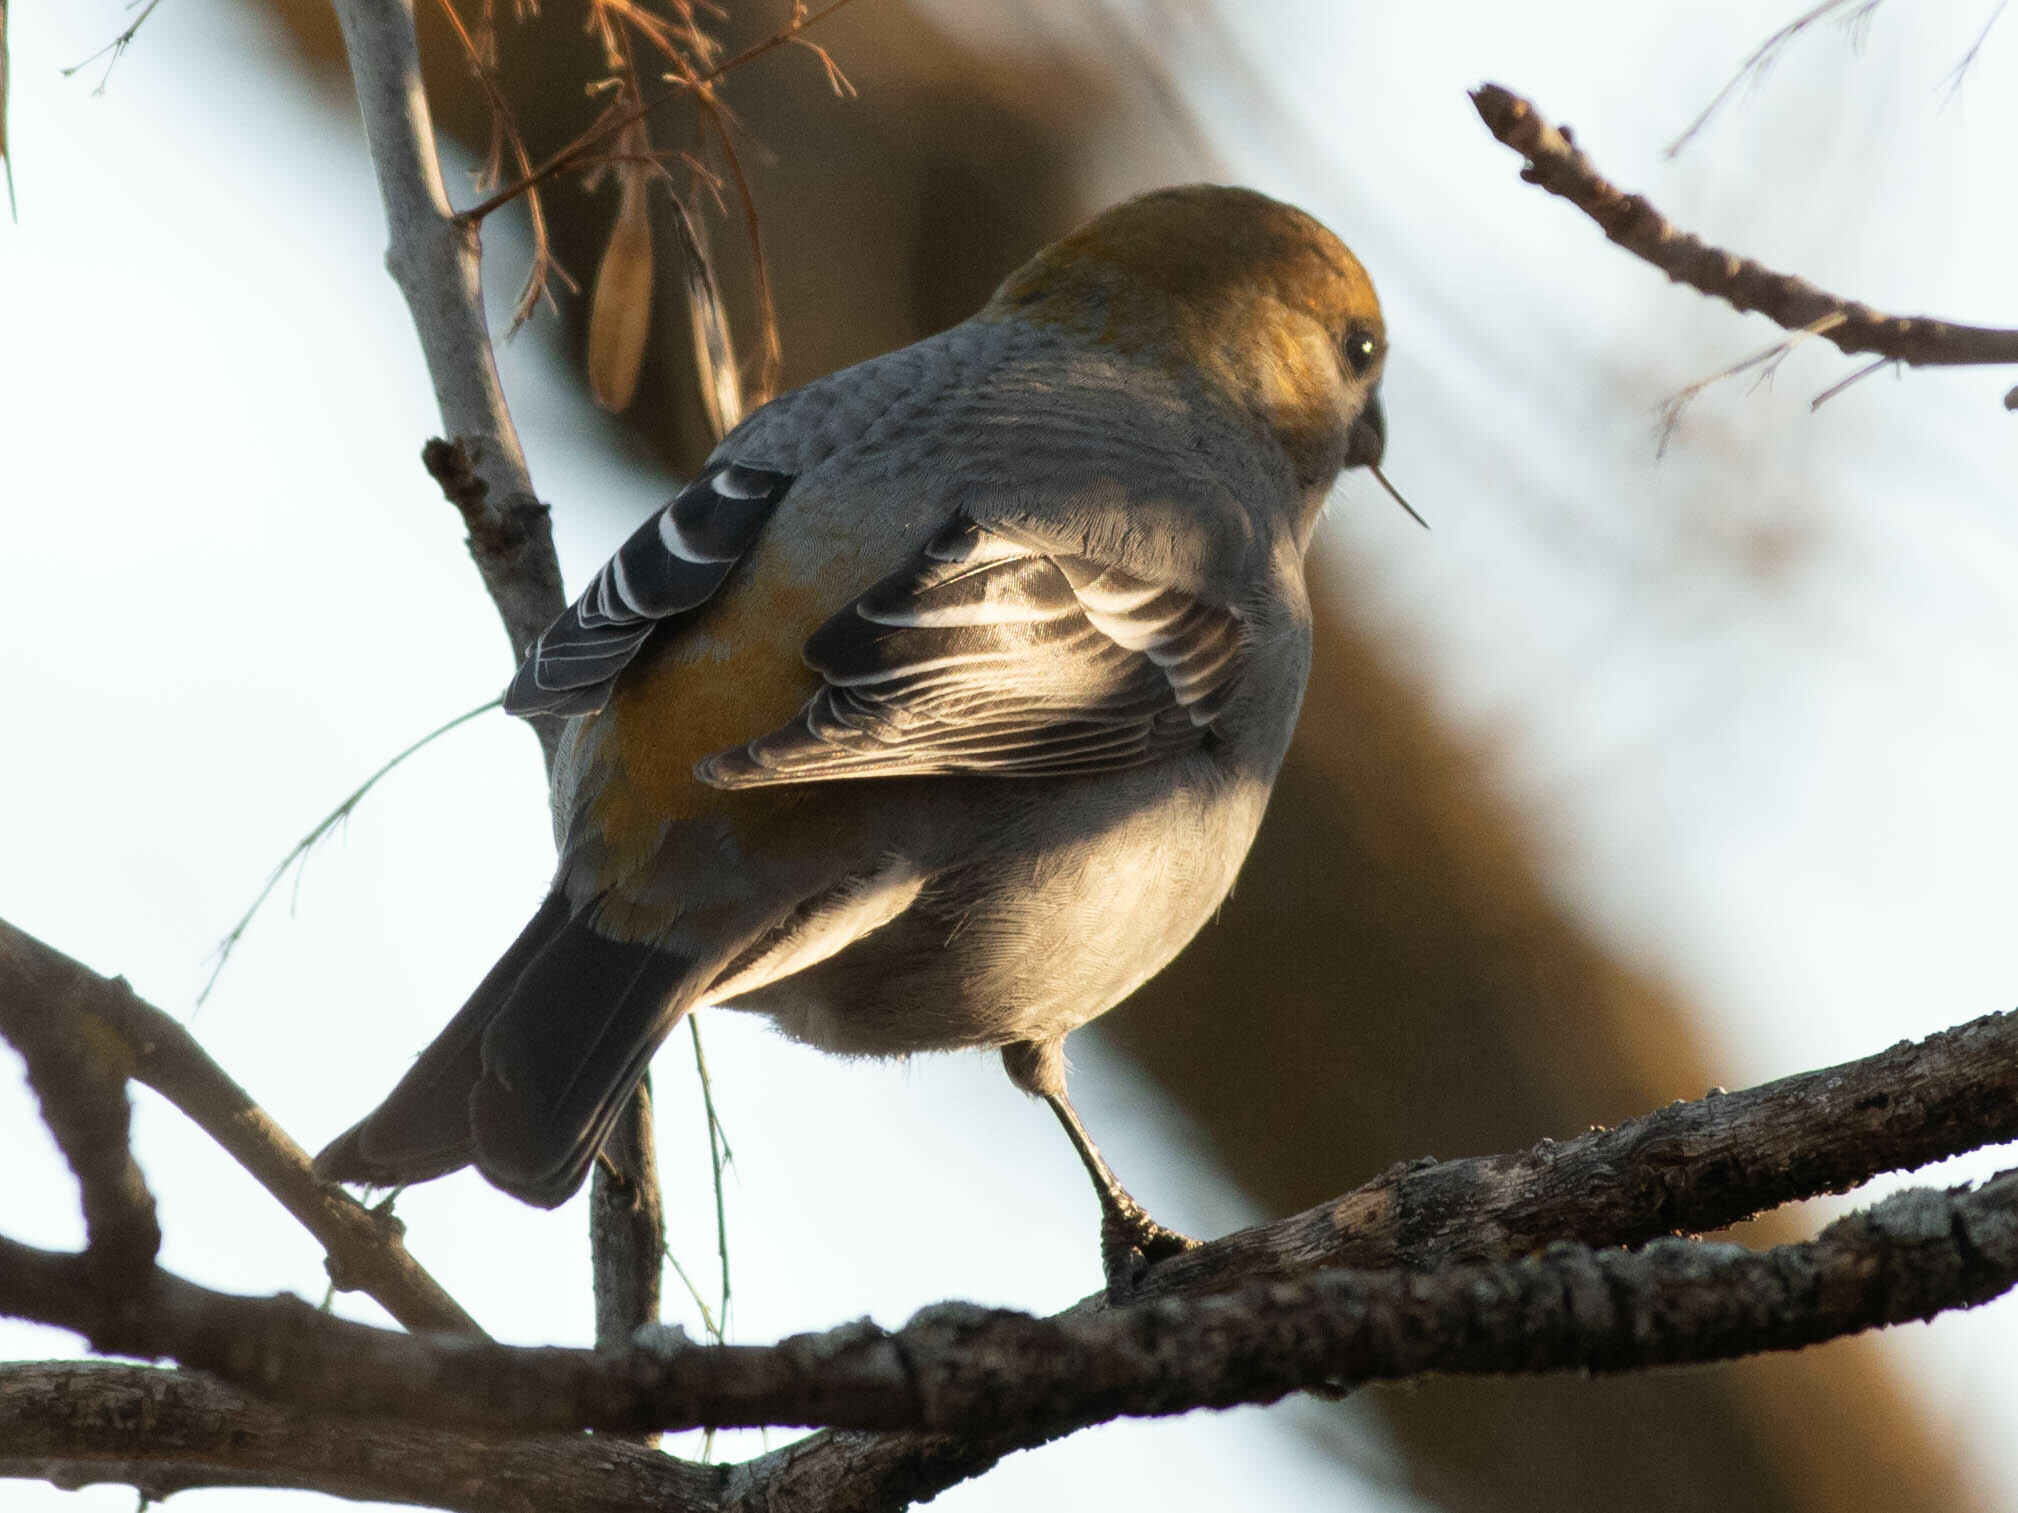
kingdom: Animalia
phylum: Chordata
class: Aves
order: Passeriformes
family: Fringillidae
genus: Pinicola
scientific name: Pinicola enucleator
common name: Pine grosbeak
